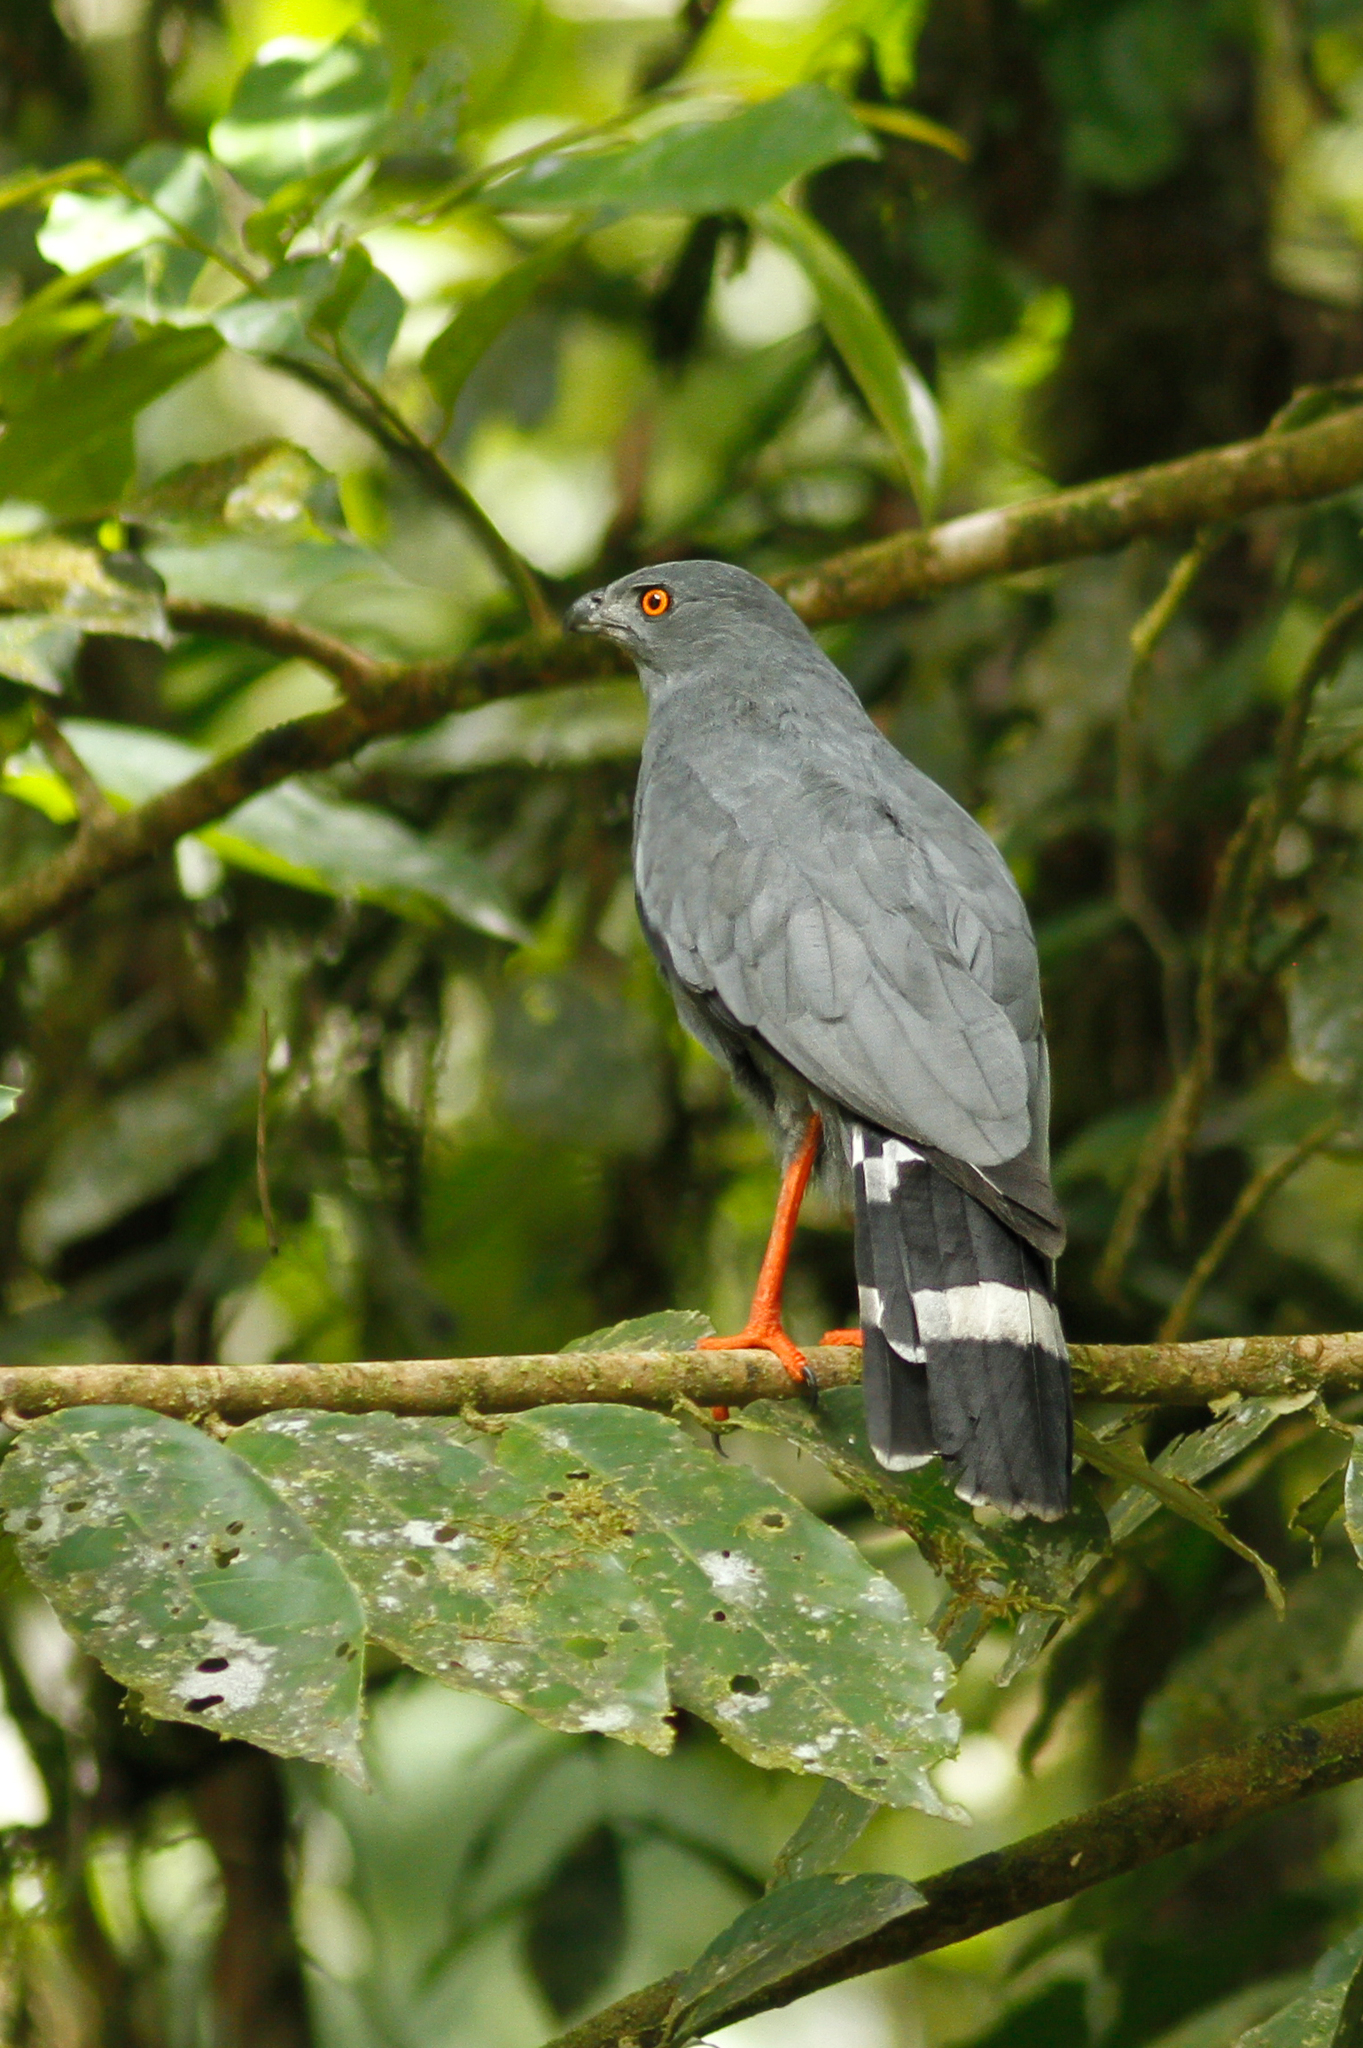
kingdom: Animalia
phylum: Chordata
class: Aves
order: Accipitriformes
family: Accipitridae
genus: Geranospiza
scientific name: Geranospiza caerulescens
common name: Crane hawk
